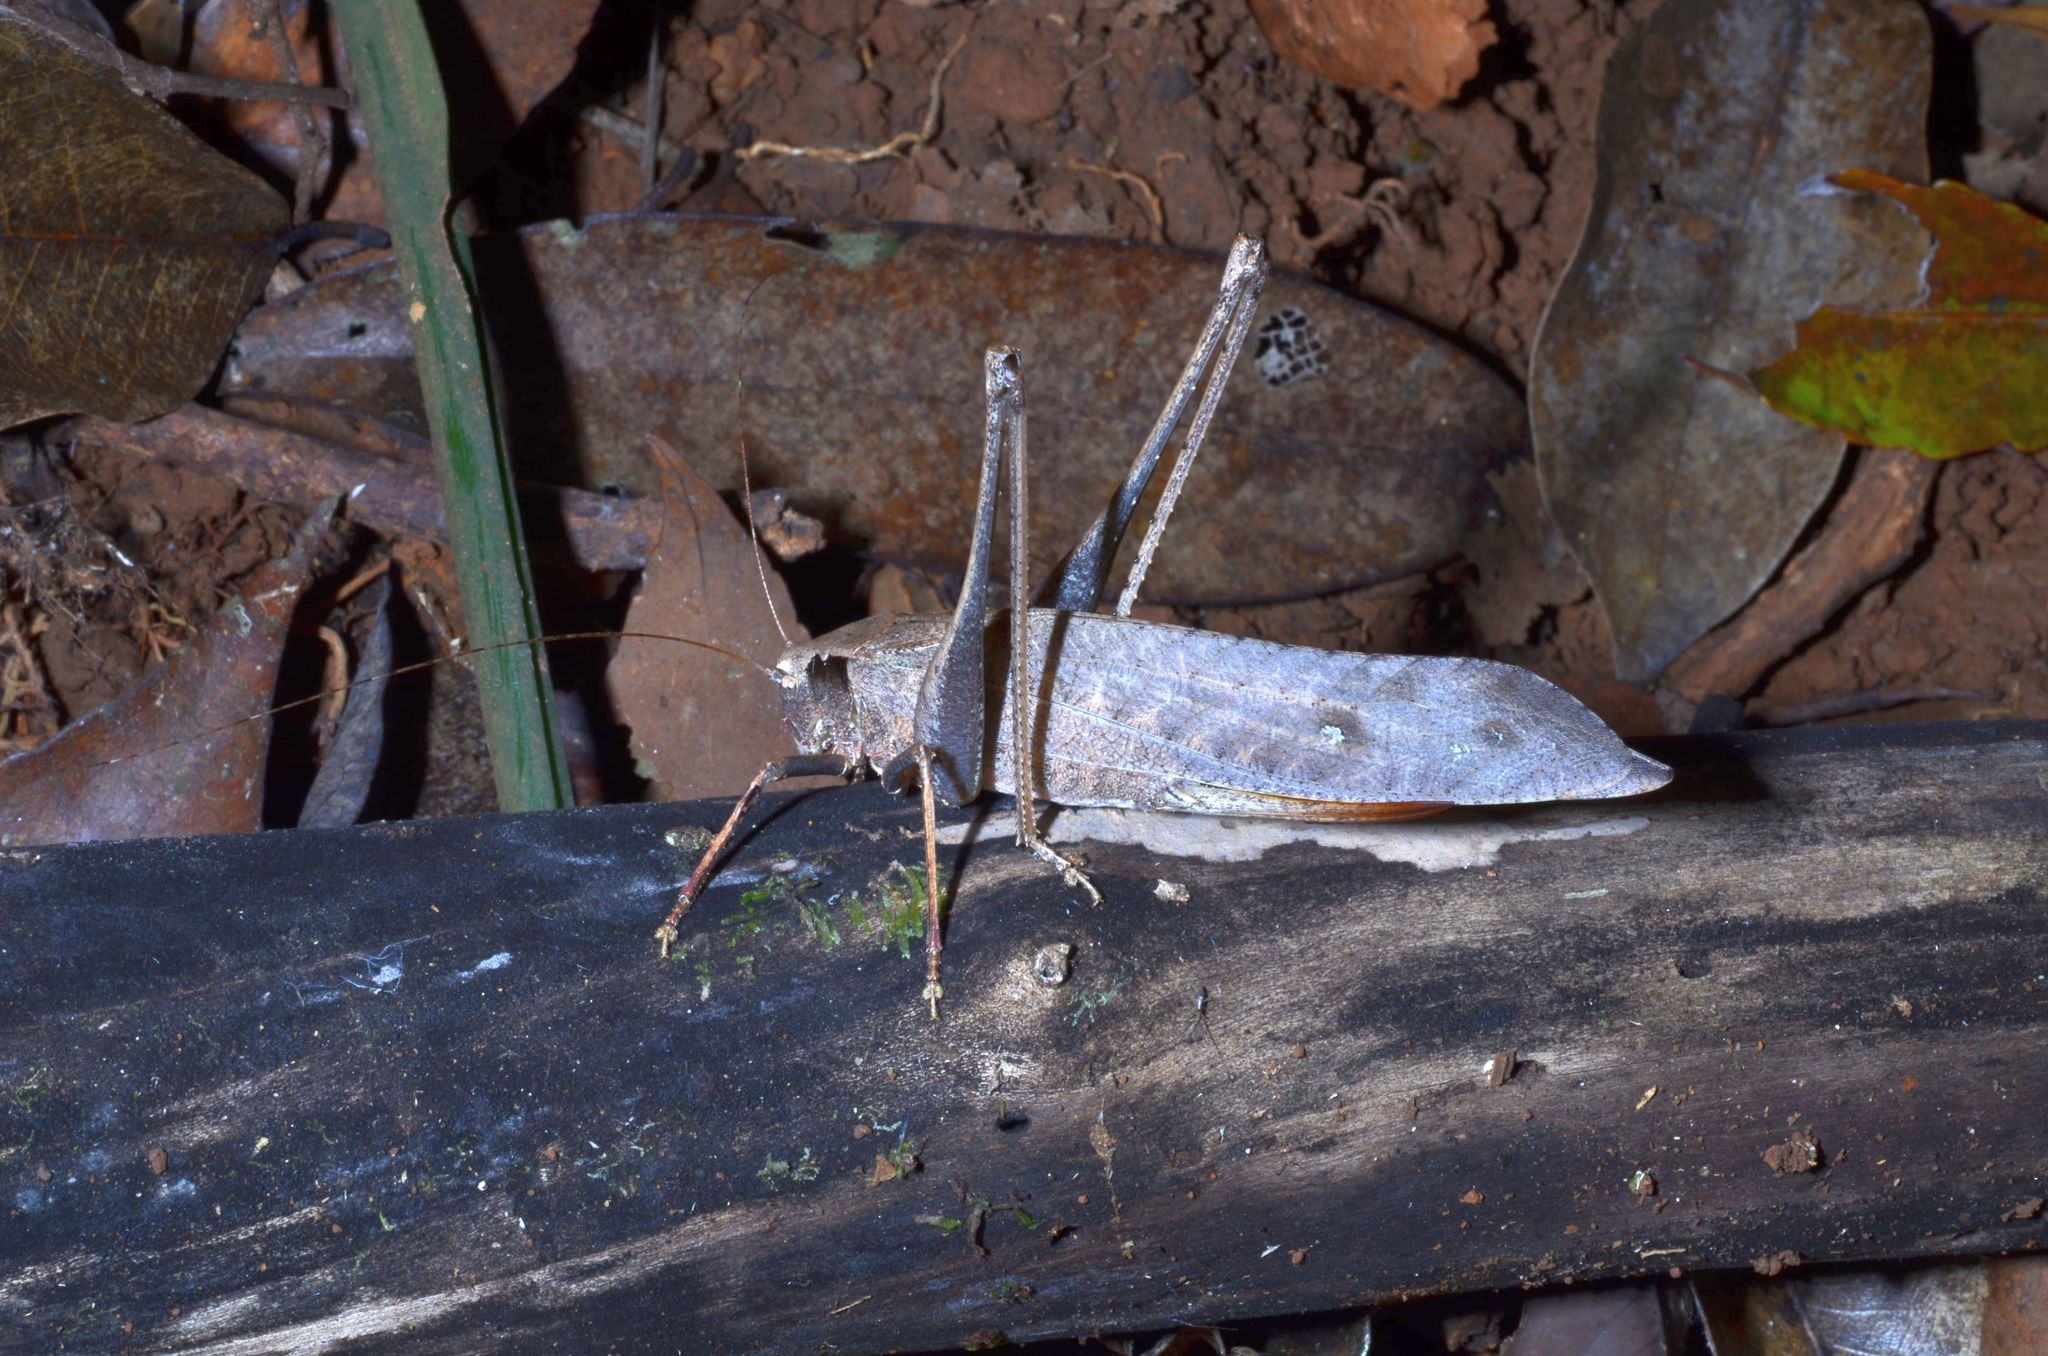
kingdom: Animalia
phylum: Arthropoda
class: Insecta
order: Orthoptera
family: Tettigoniidae
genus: Mecopoda
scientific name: Mecopoda elongata
